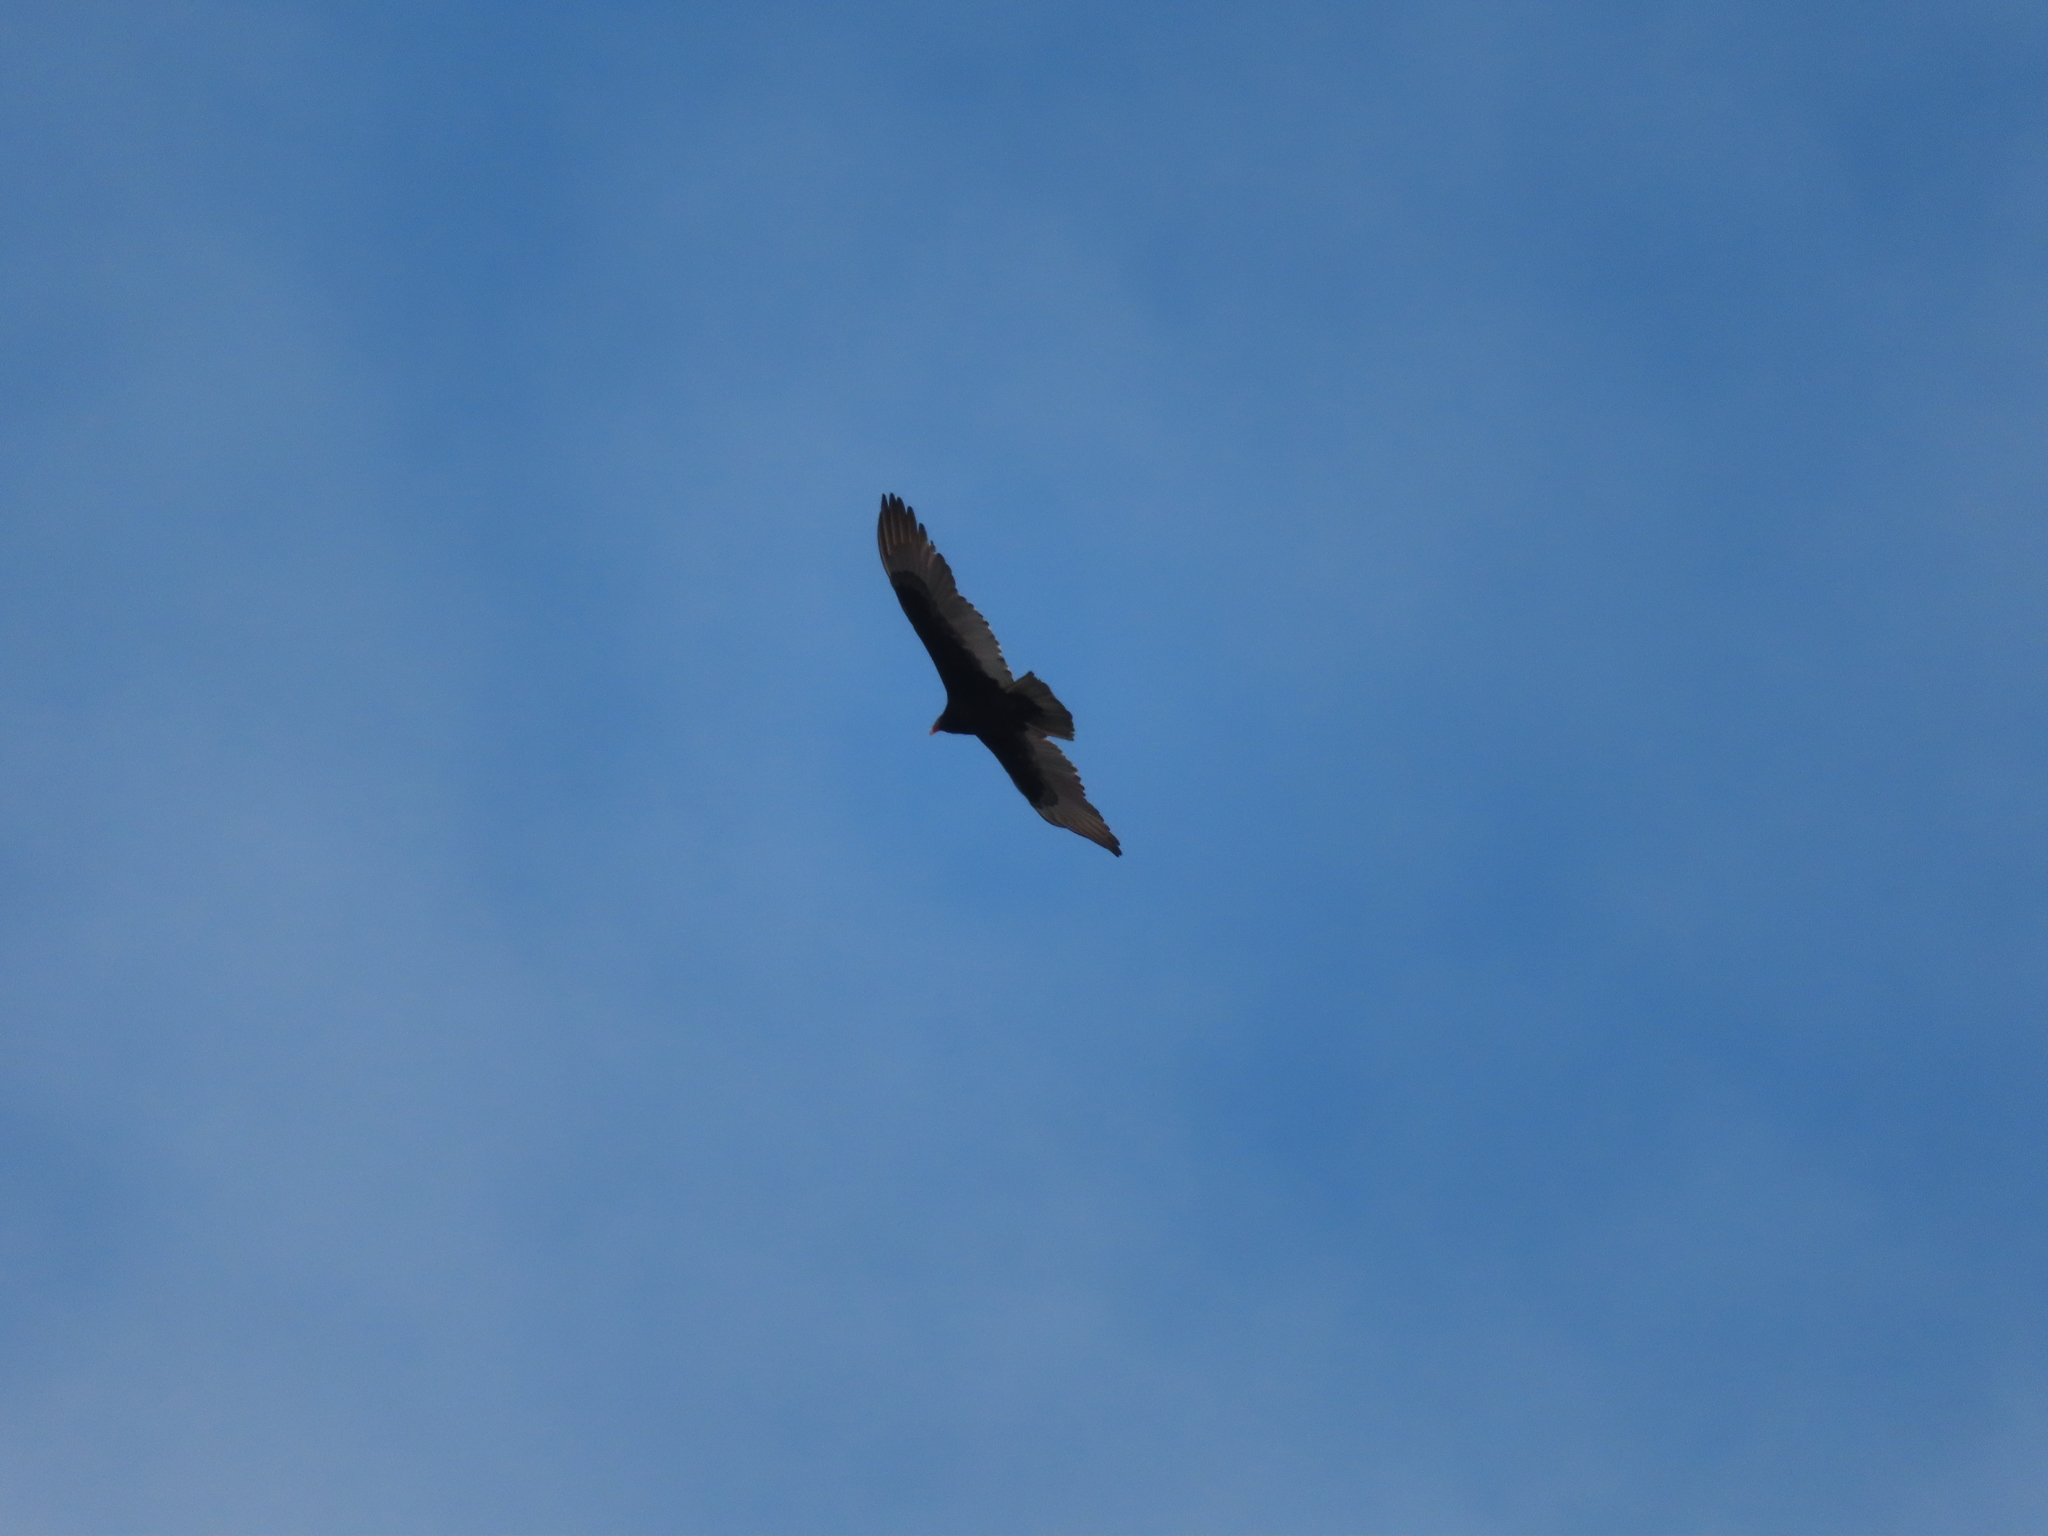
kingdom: Animalia
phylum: Chordata
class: Aves
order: Accipitriformes
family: Cathartidae
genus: Cathartes
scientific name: Cathartes aura
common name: Turkey vulture
